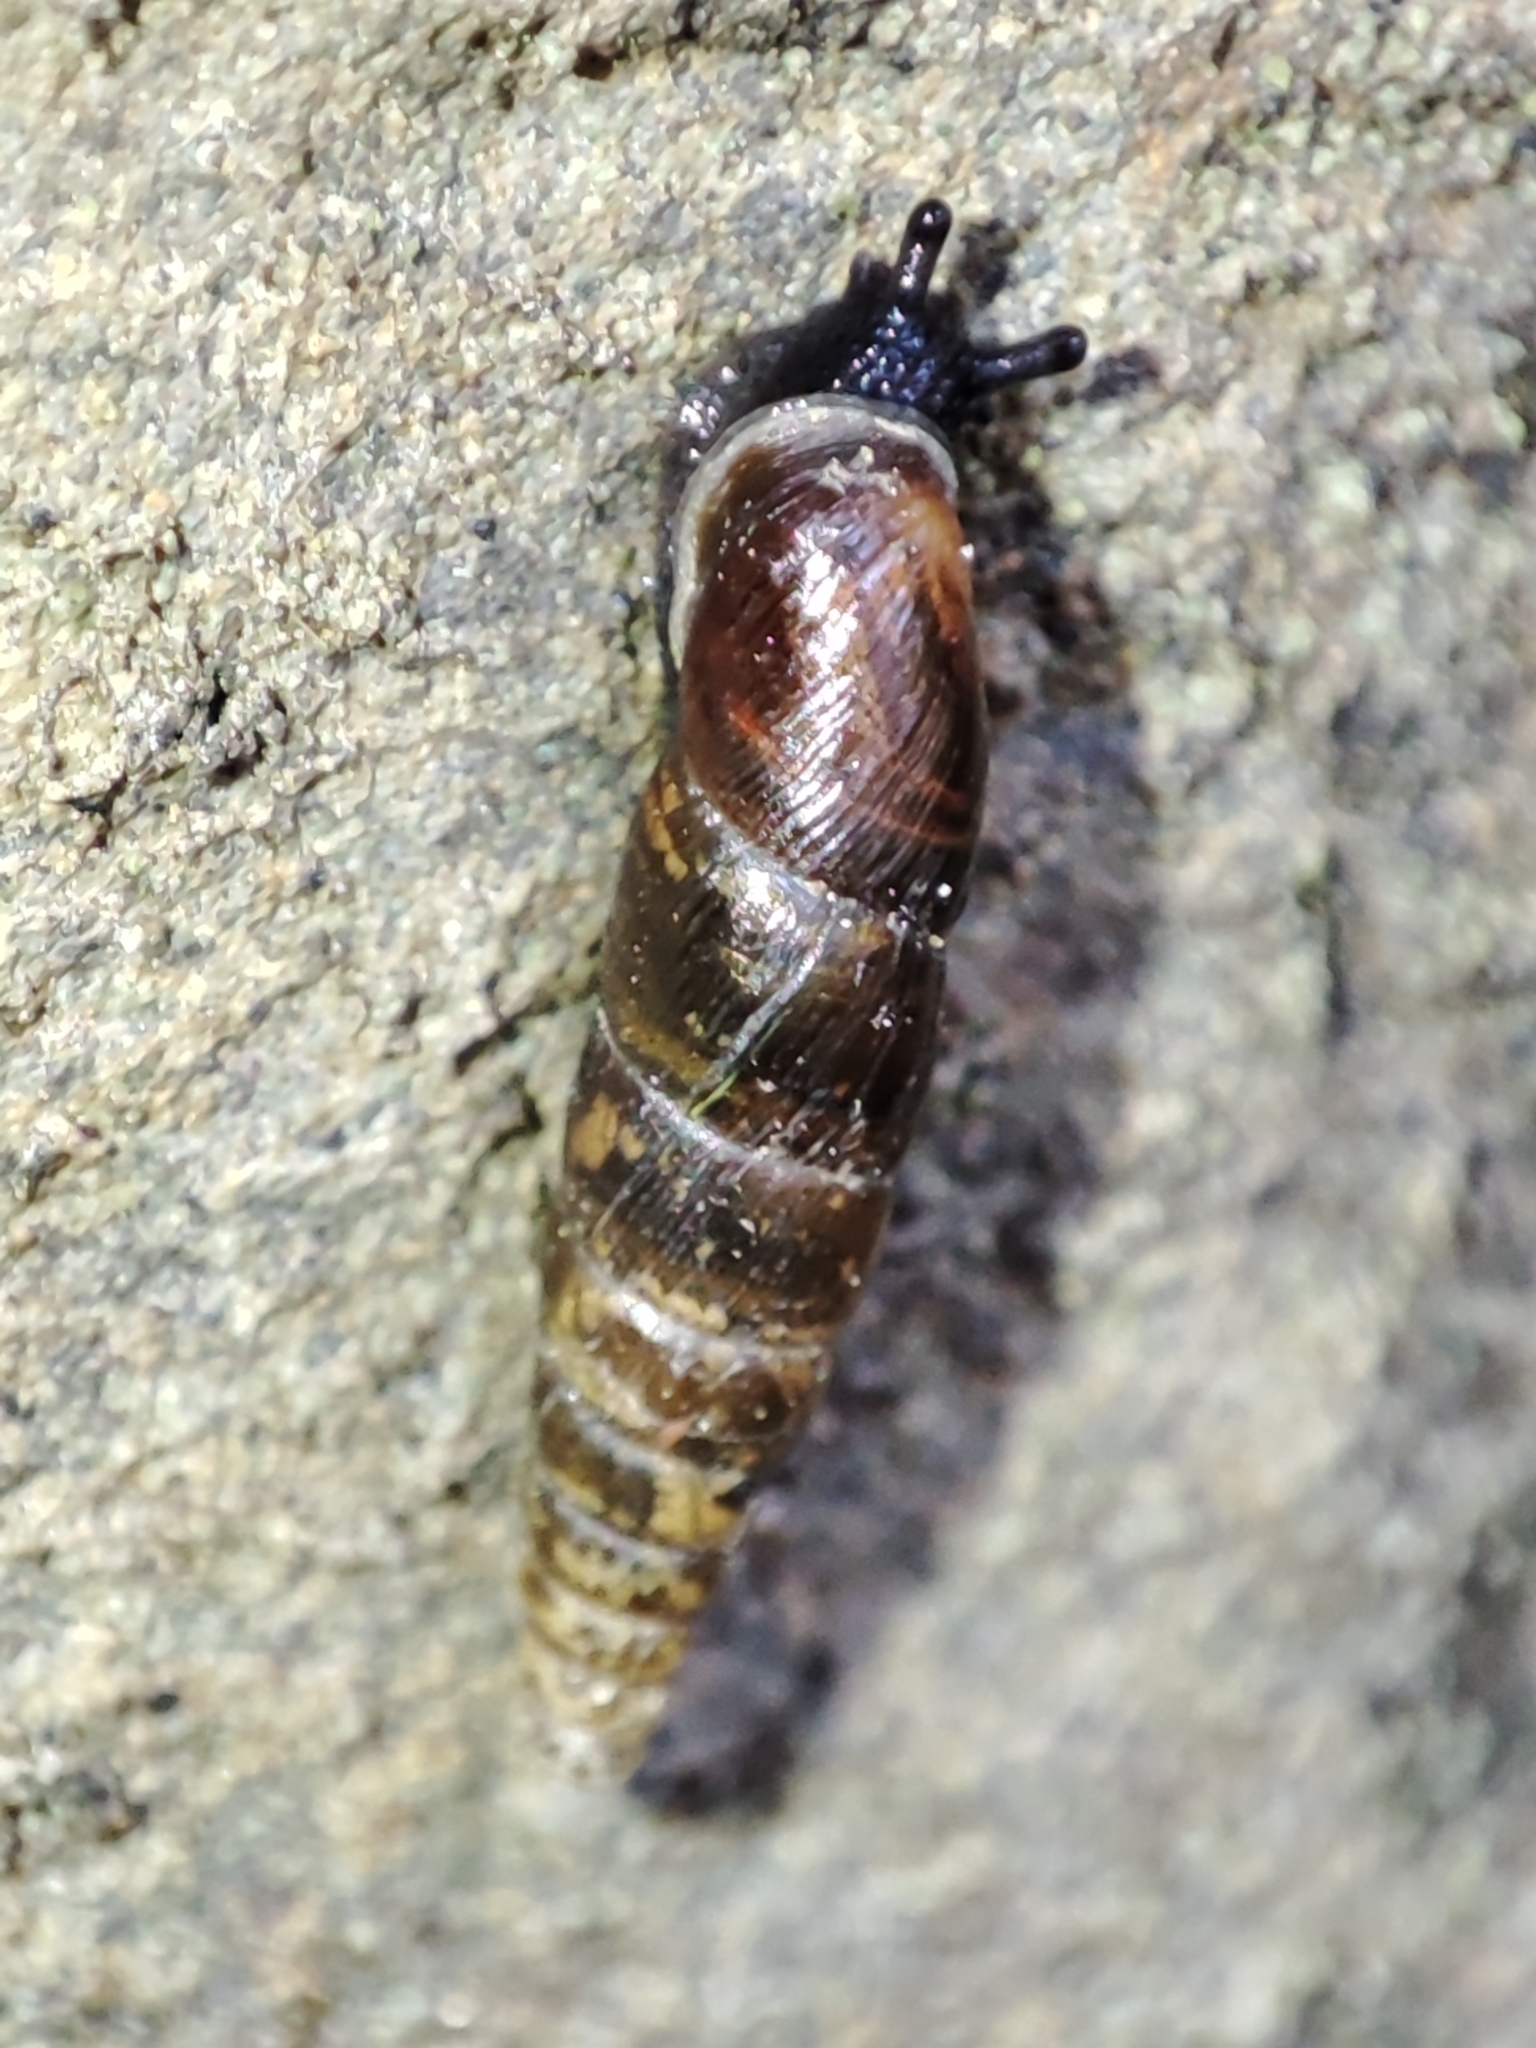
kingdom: Animalia
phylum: Mollusca
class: Gastropoda
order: Stylommatophora
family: Clausiliidae
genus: Cochlodina
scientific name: Cochlodina orthostoma
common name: Straightmouth door snail
